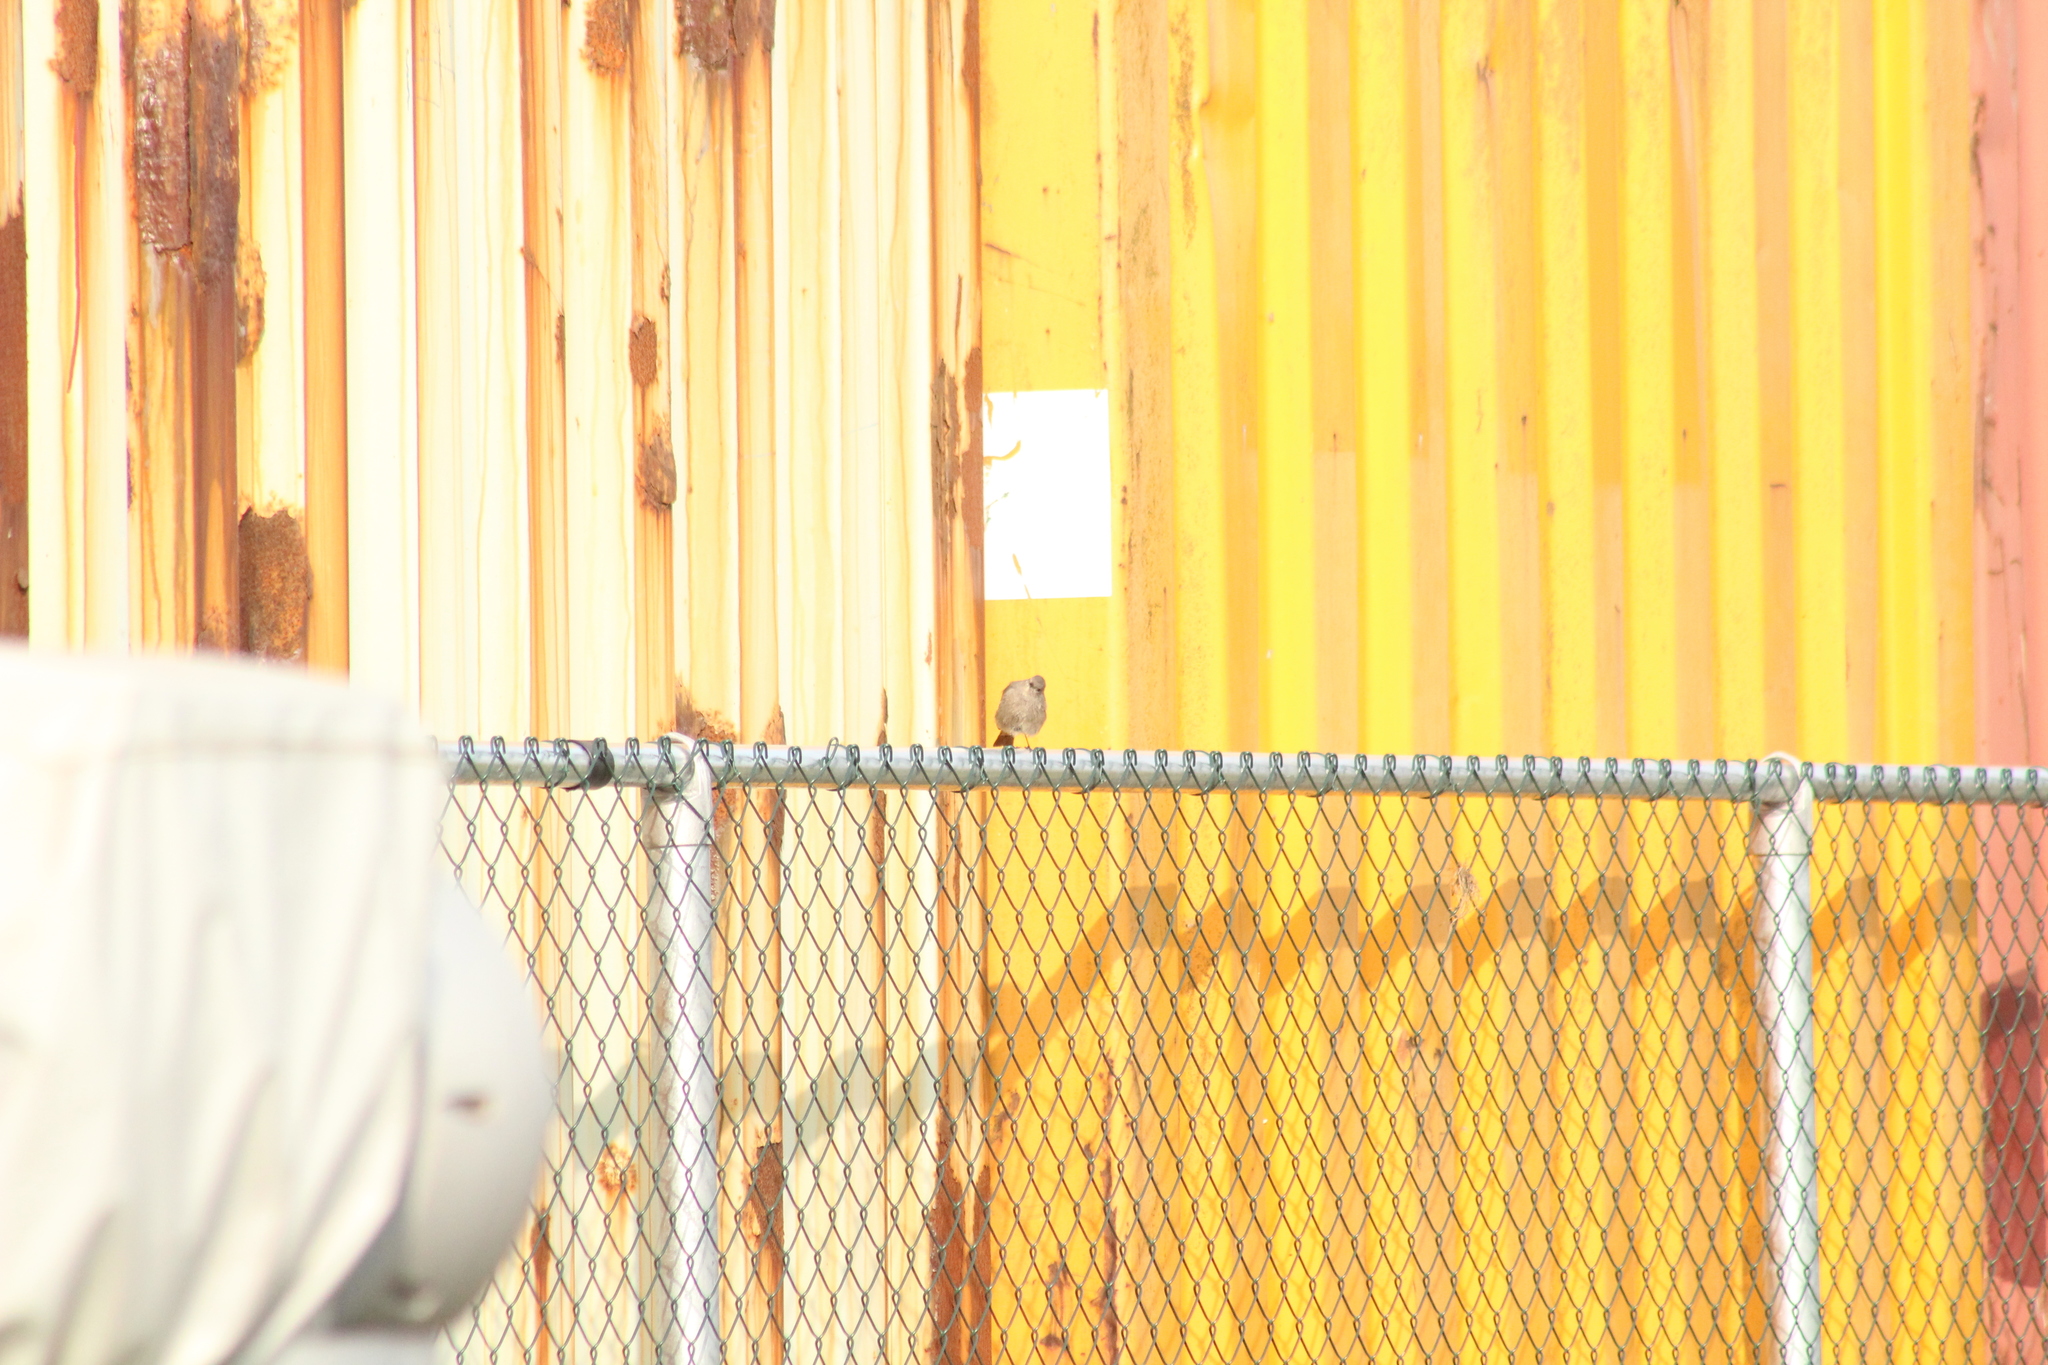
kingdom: Animalia
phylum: Chordata
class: Aves
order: Passeriformes
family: Muscicapidae
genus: Phoenicurus
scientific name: Phoenicurus ochruros
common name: Black redstart
